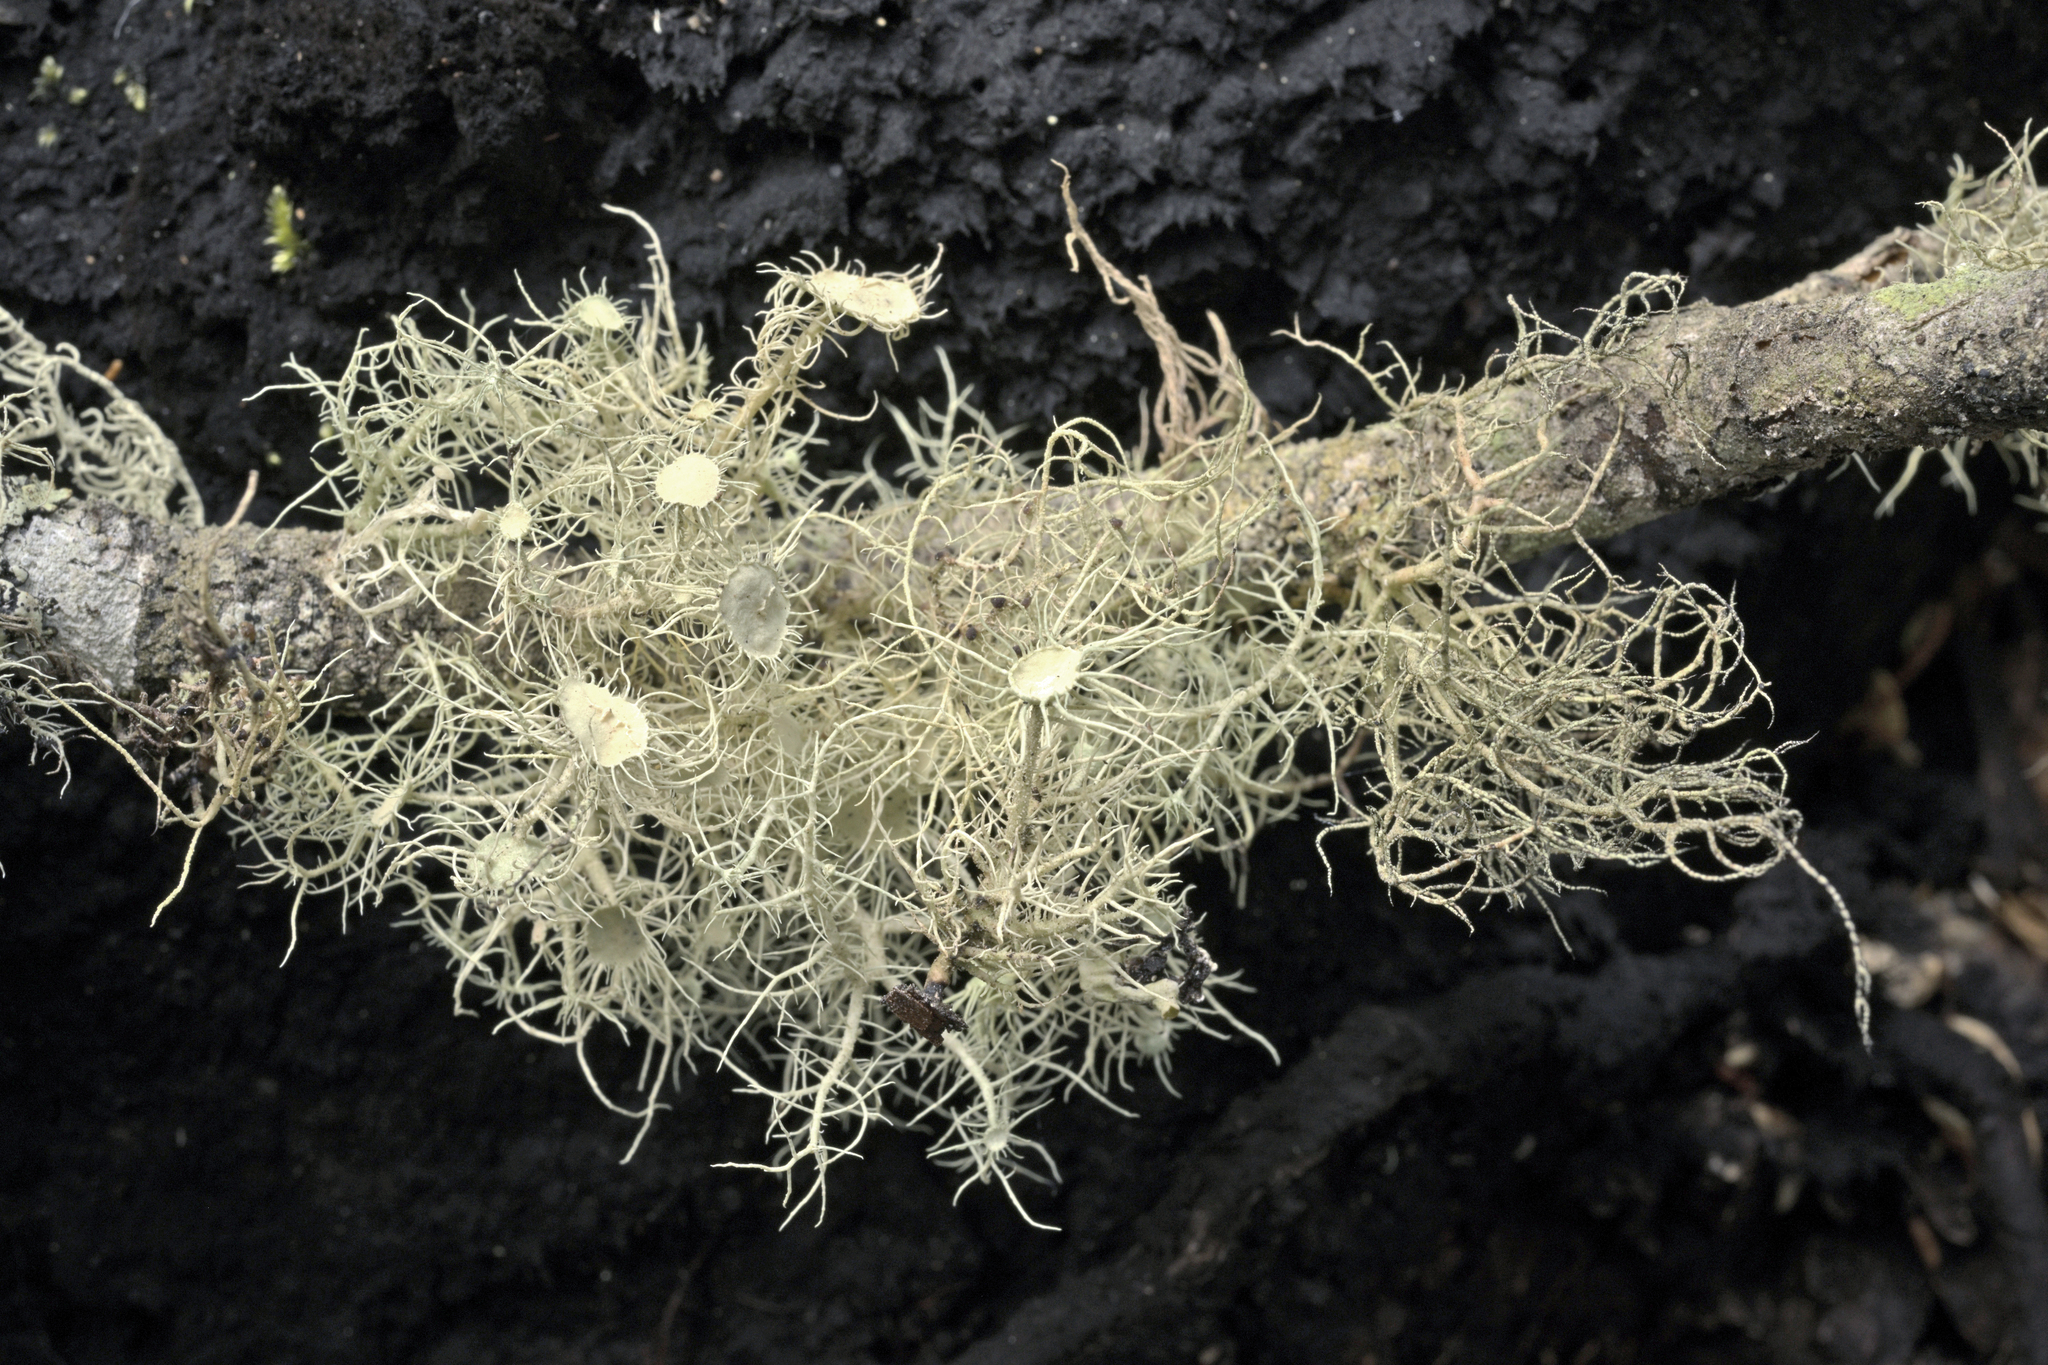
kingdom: Fungi
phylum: Ascomycota
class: Lecanoromycetes
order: Lecanorales
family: Parmeliaceae
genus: Usnea
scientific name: Usnea ciliifera
